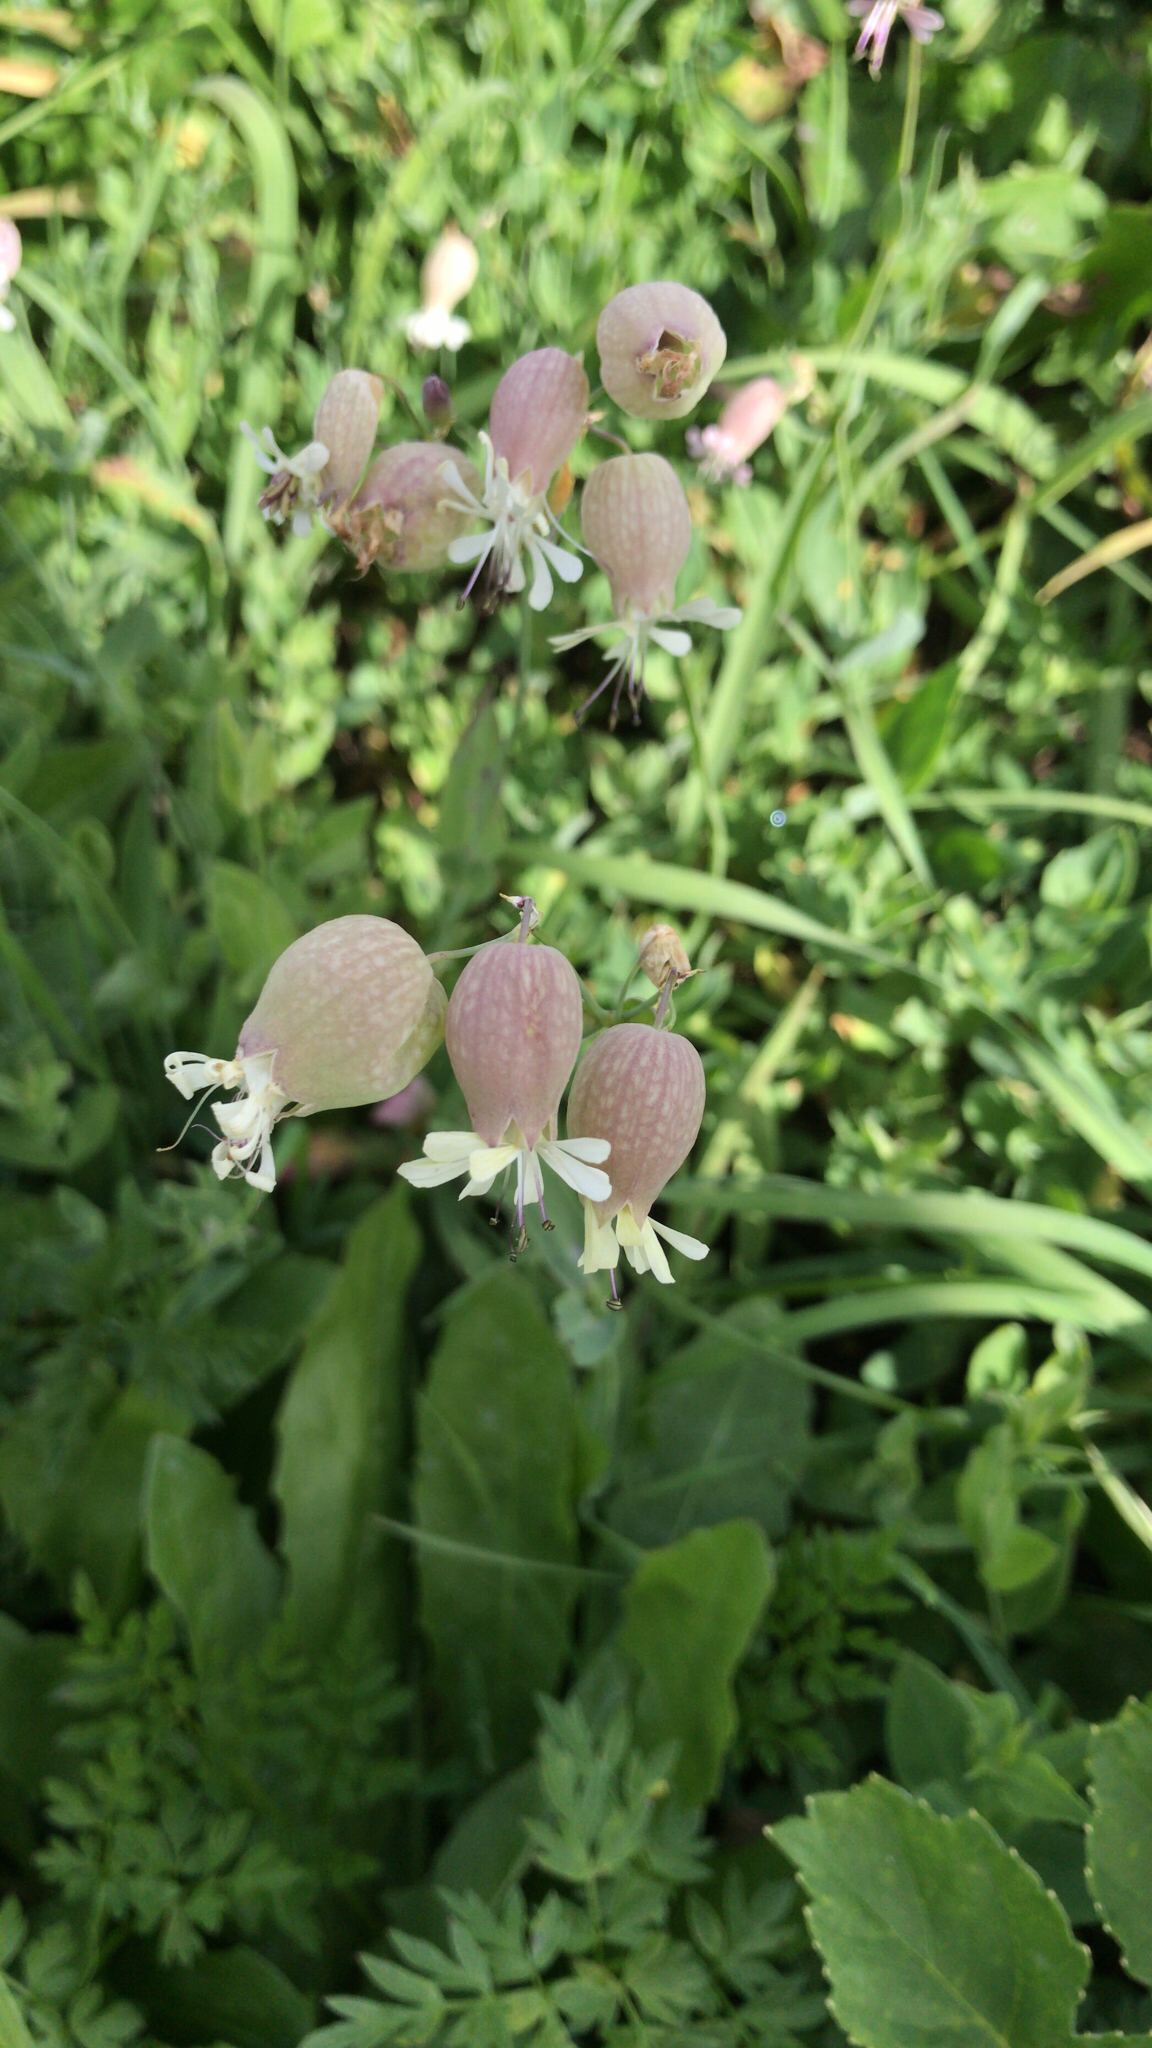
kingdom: Plantae
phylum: Tracheophyta
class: Magnoliopsida
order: Caryophyllales
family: Caryophyllaceae
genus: Silene
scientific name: Silene vulgaris
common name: Bladder campion
